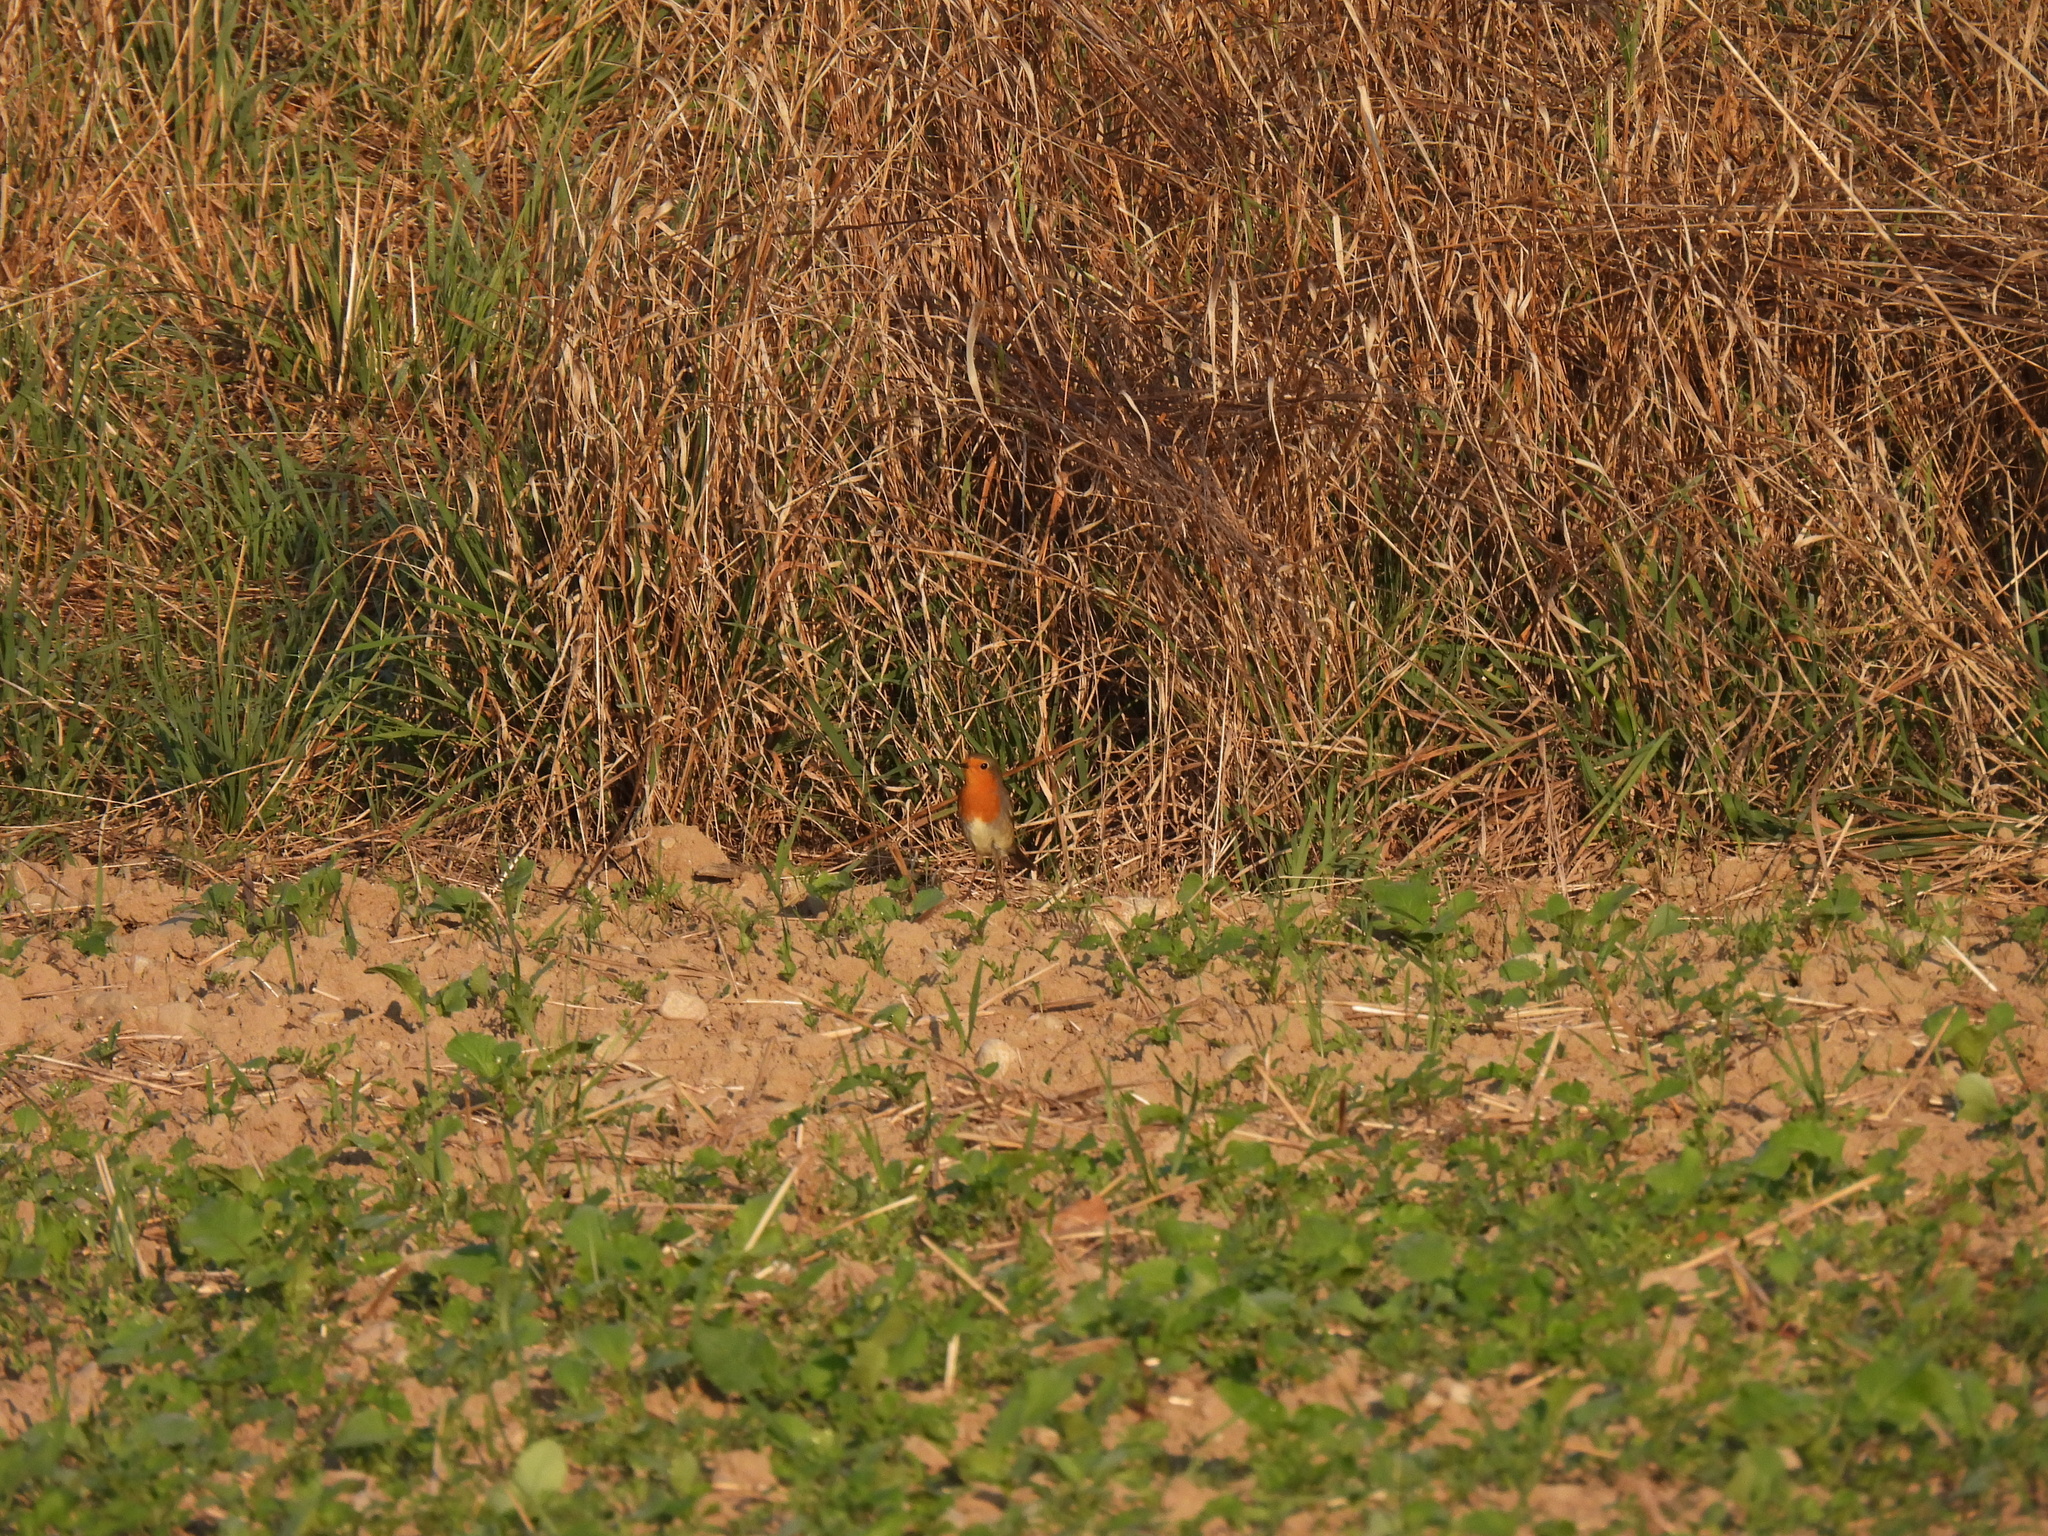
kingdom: Animalia
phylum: Chordata
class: Aves
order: Passeriformes
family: Muscicapidae
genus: Erithacus
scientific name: Erithacus rubecula
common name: European robin
